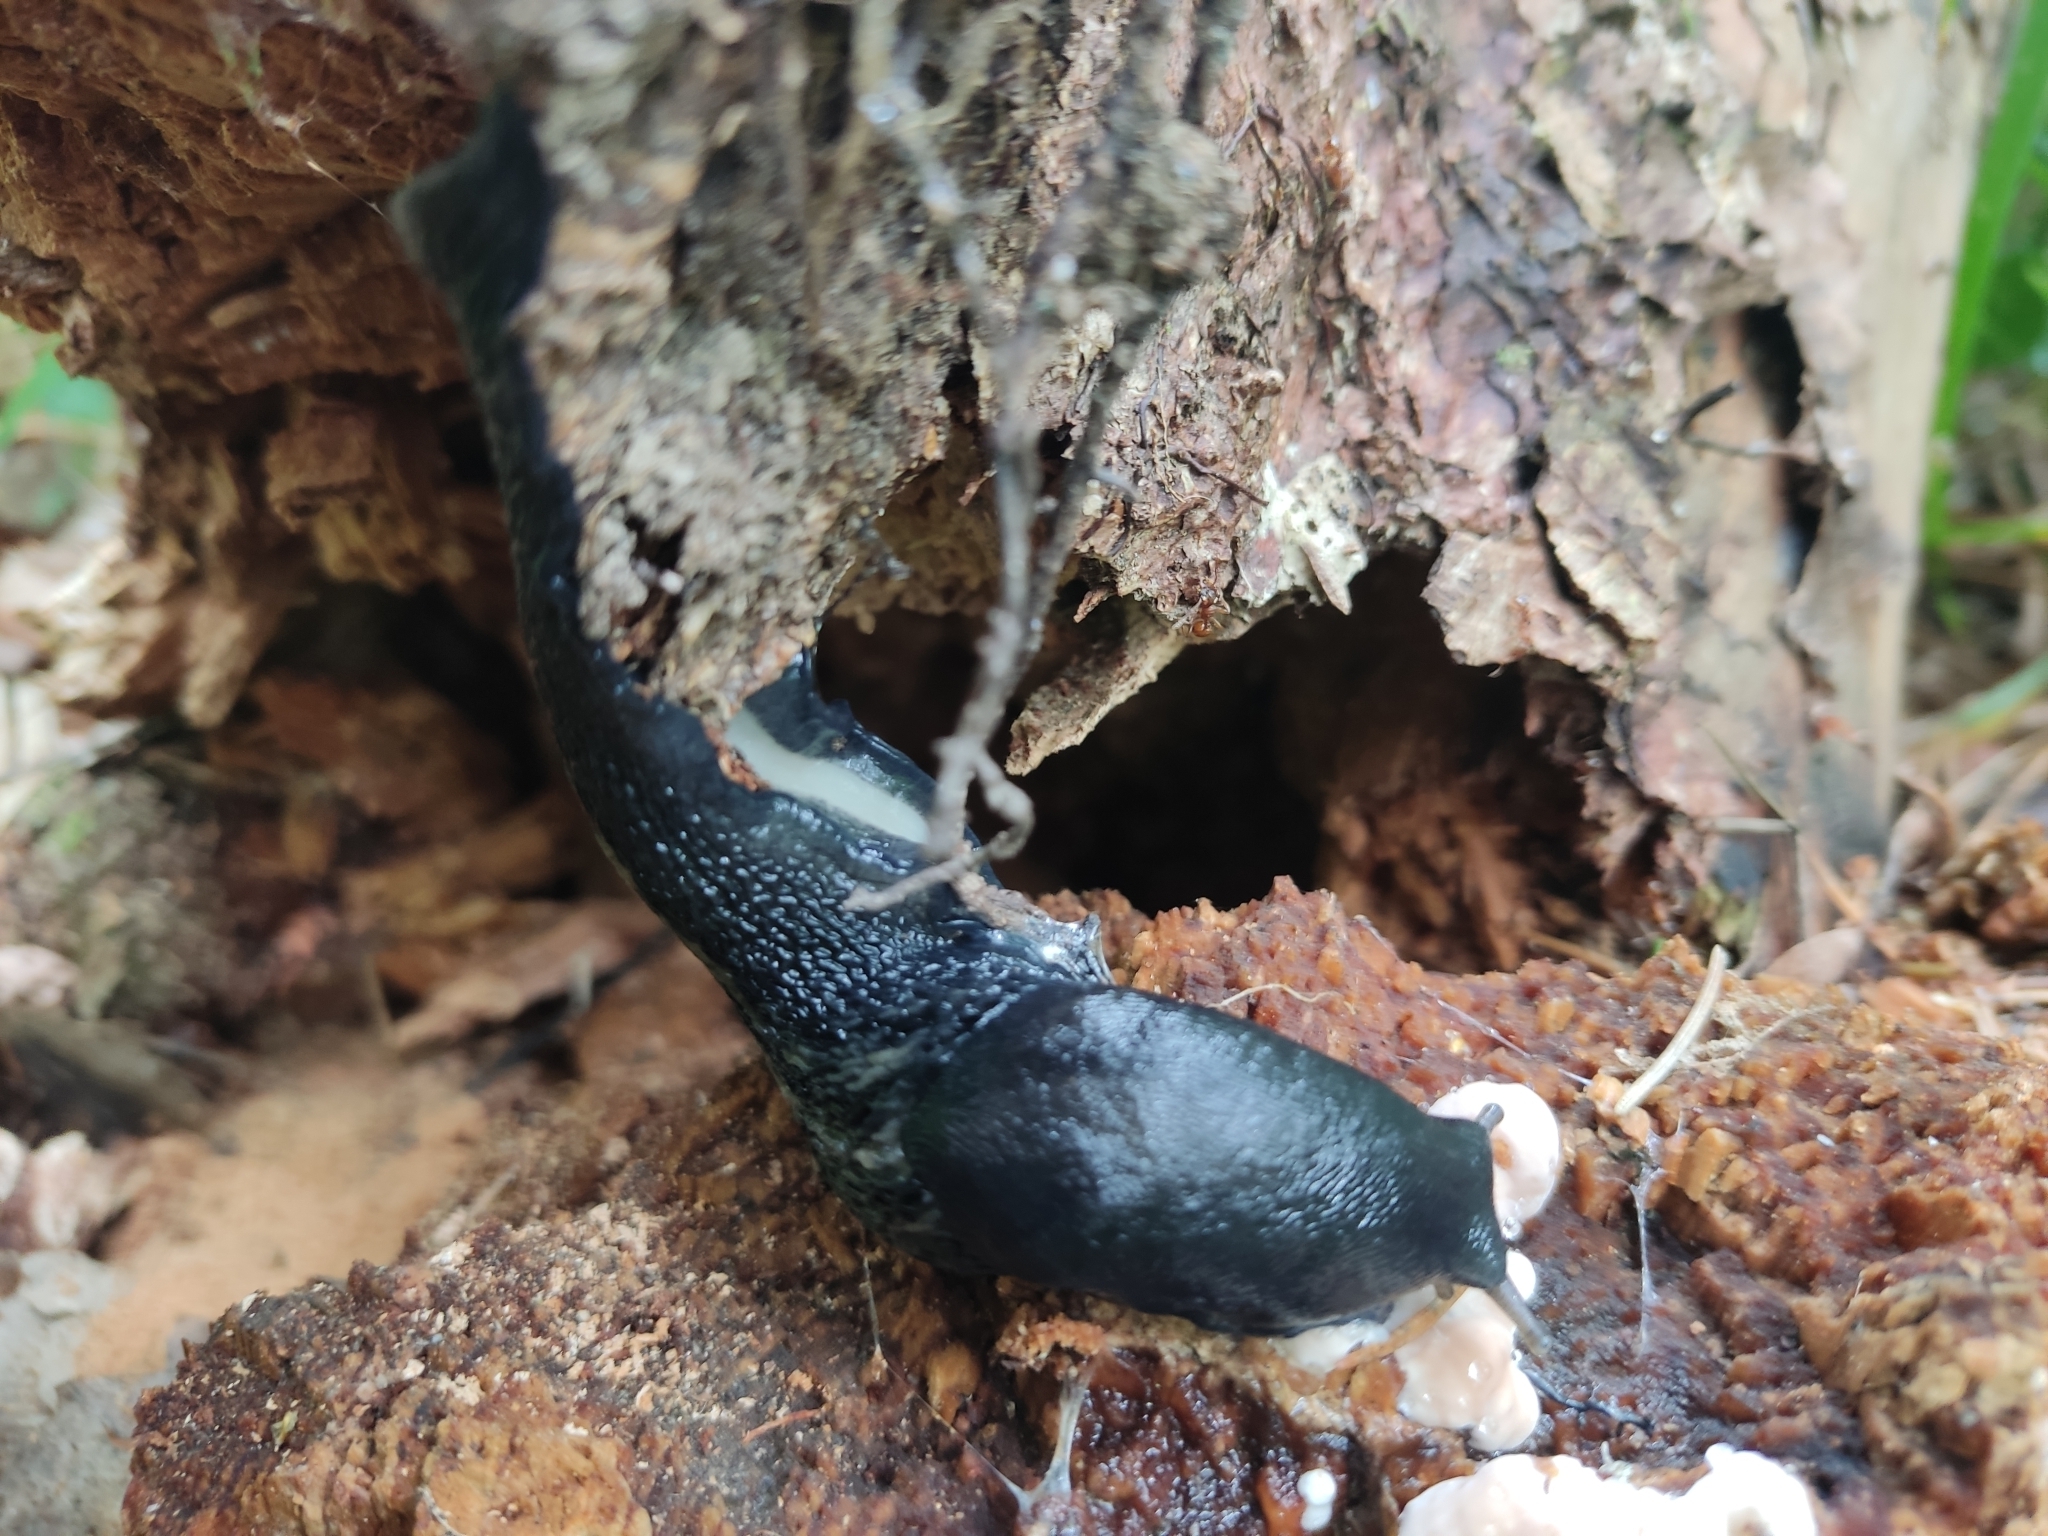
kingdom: Animalia
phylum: Mollusca
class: Gastropoda
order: Stylommatophora
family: Limacidae
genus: Limax
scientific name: Limax cinereoniger
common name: Ash-black slug
